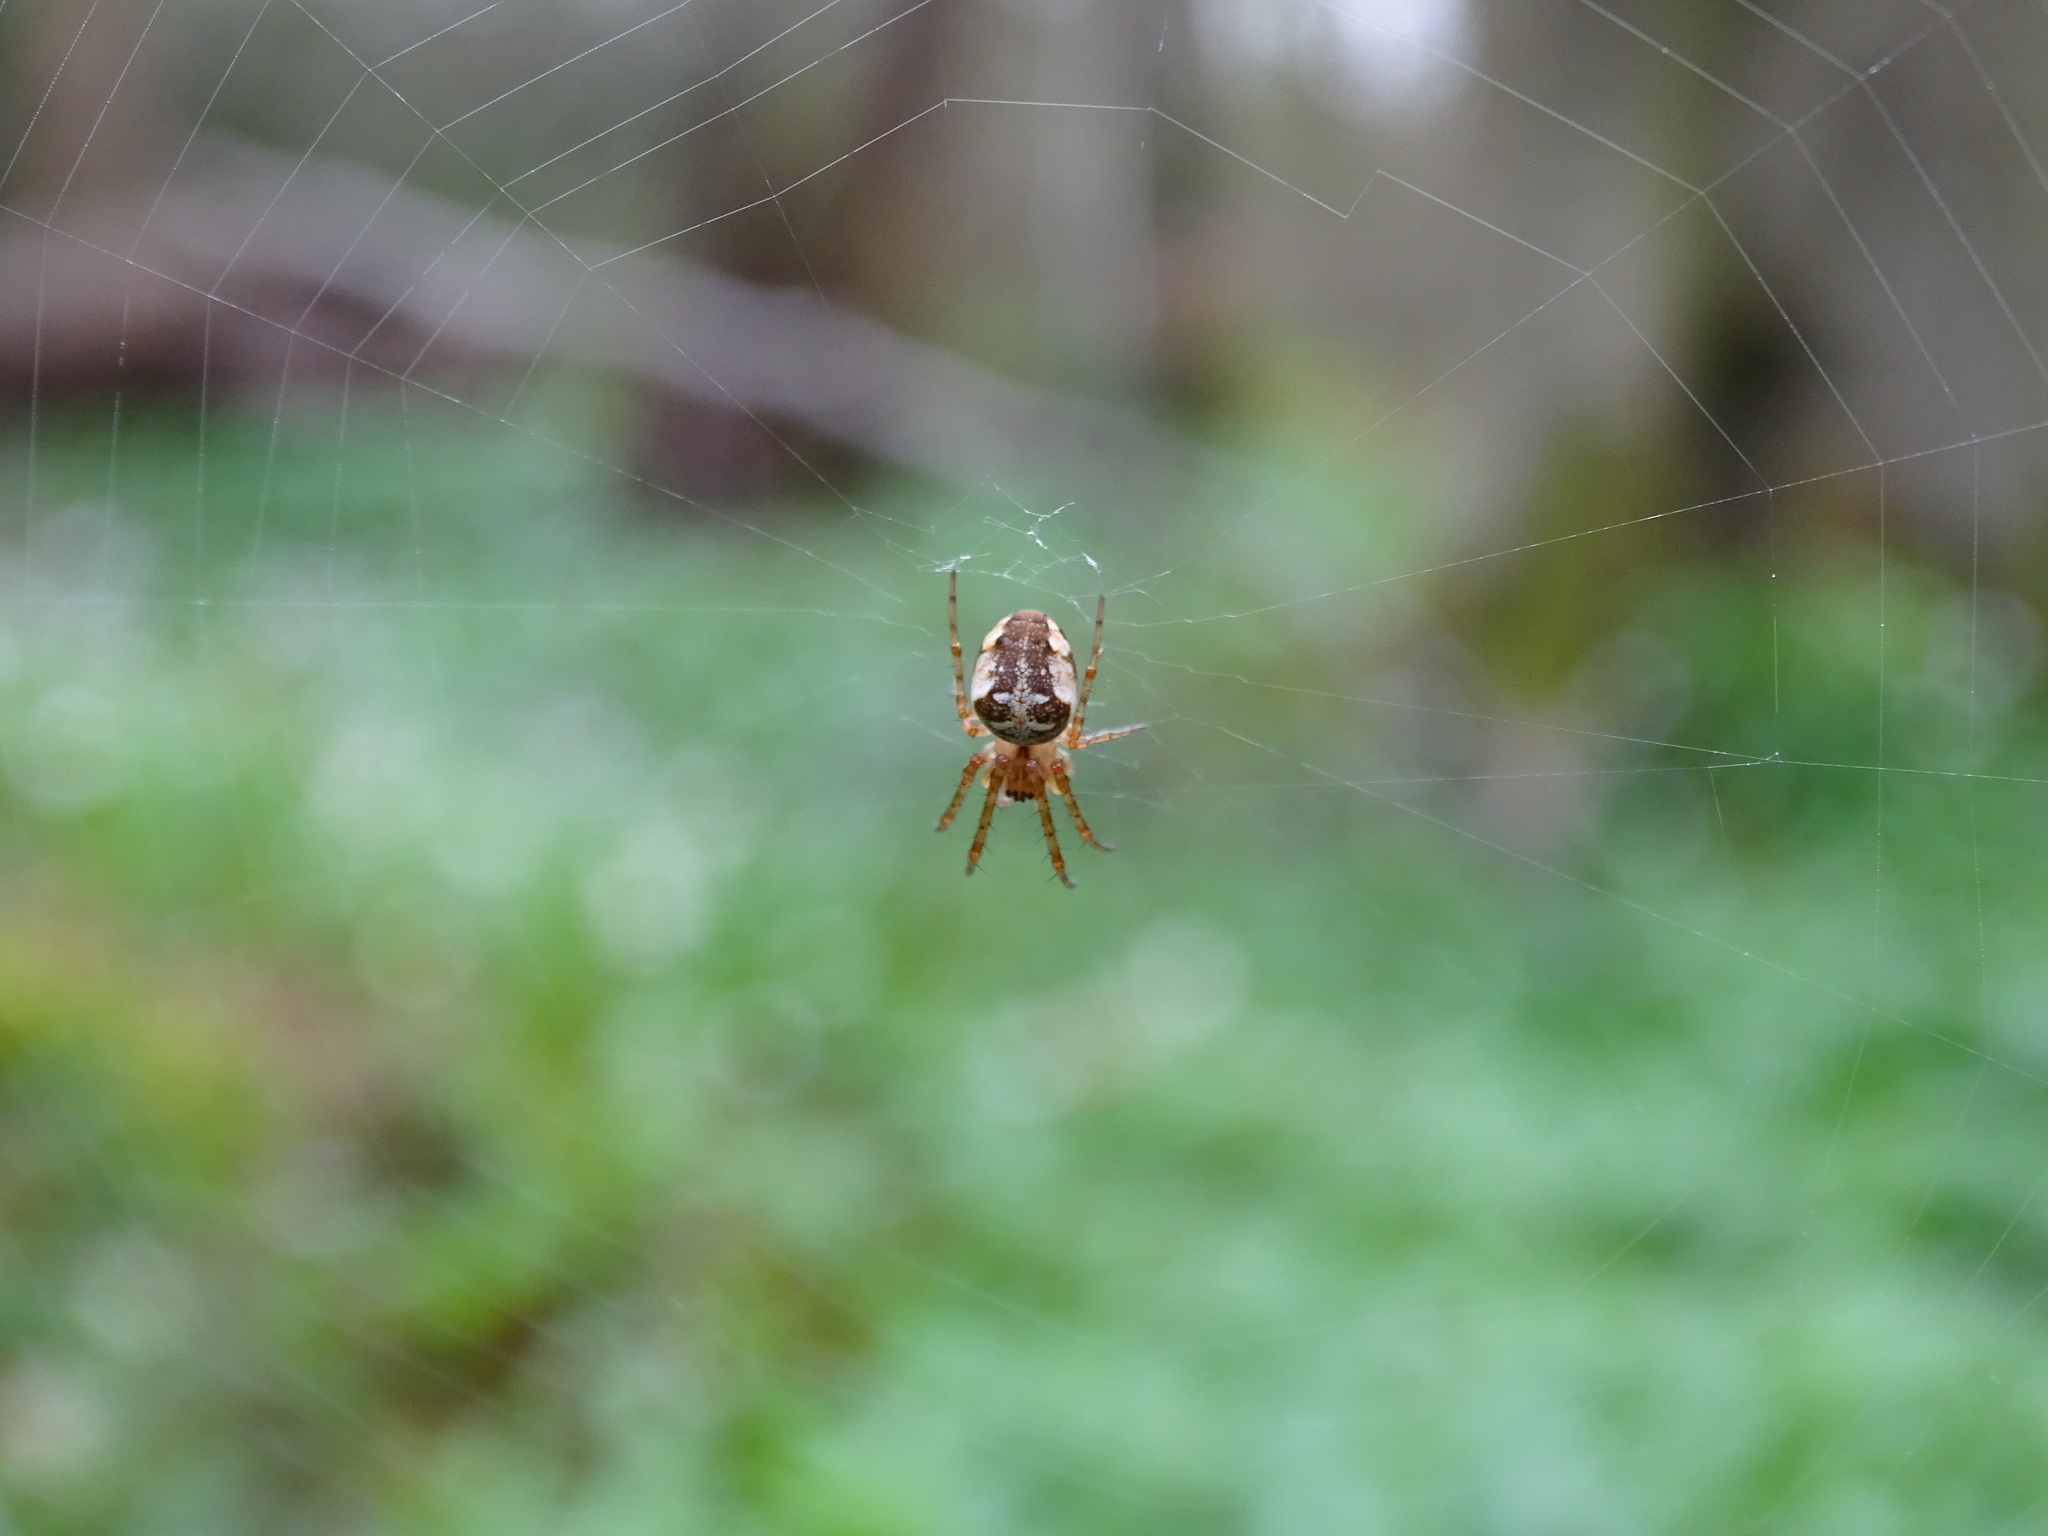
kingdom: Animalia
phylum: Arthropoda
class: Arachnida
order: Araneae
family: Araneidae
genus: Araneus
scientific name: Araneus diadematus
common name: Cross orbweaver
